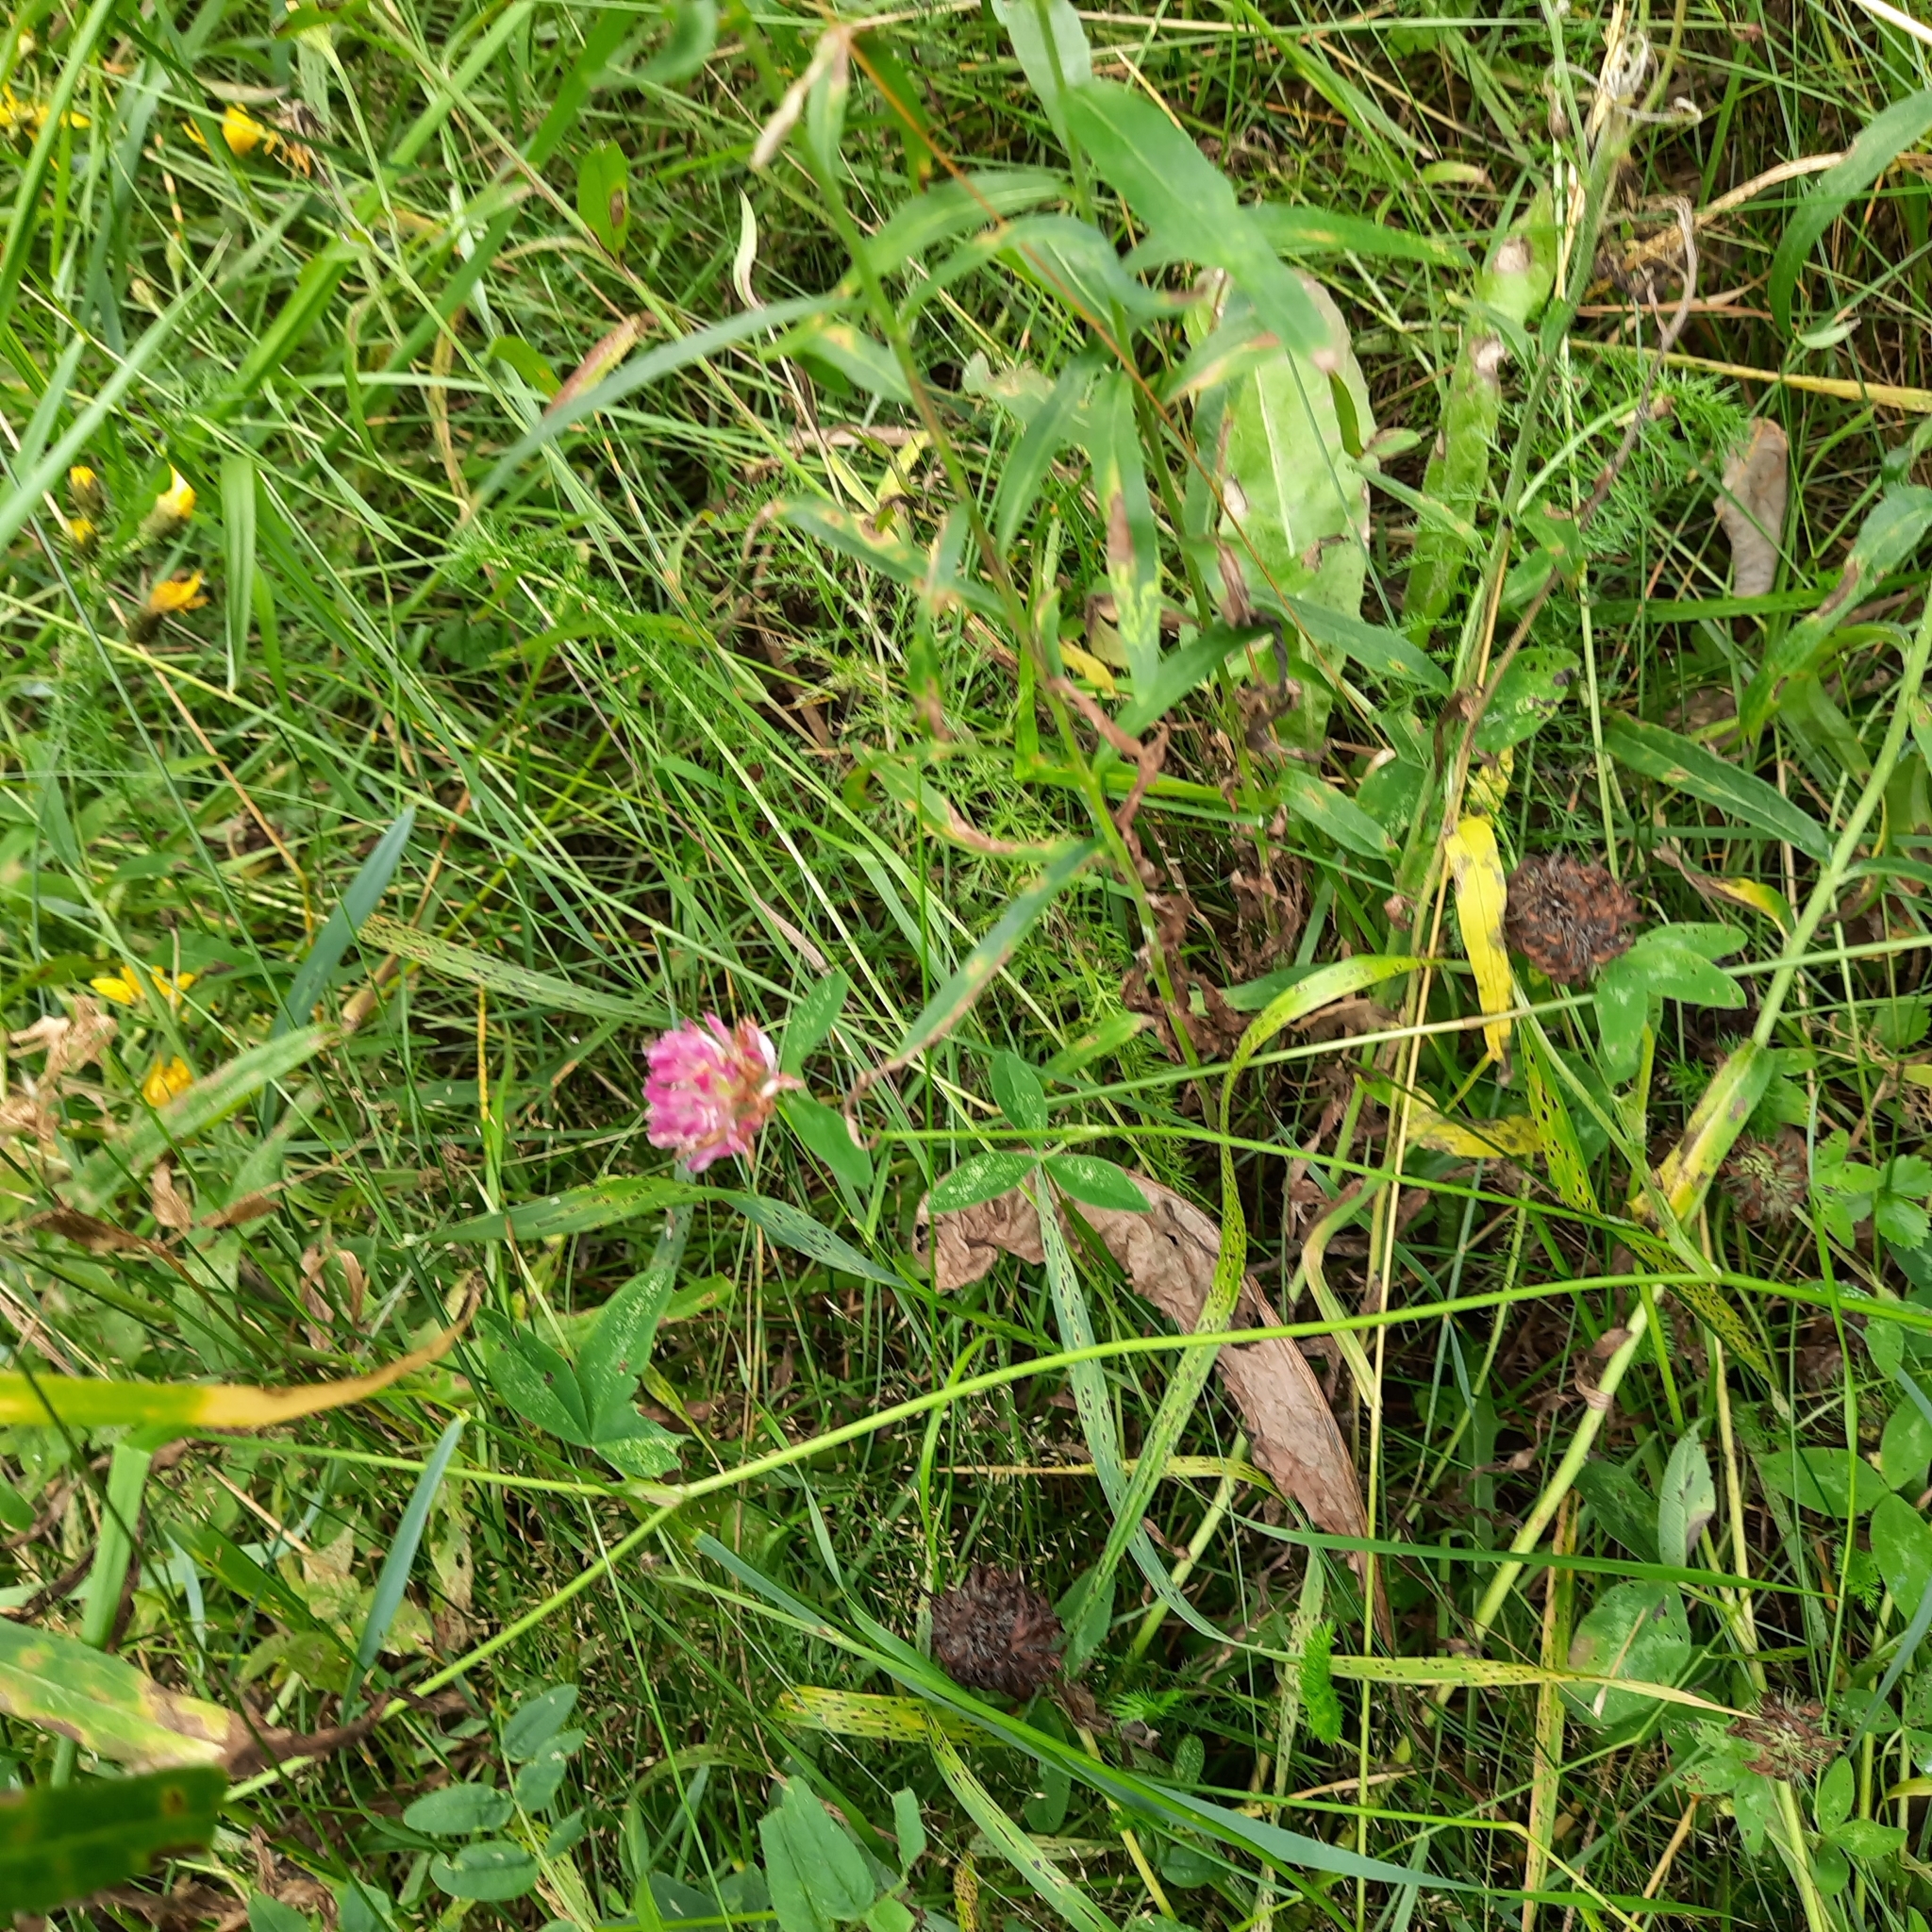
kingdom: Plantae
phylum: Tracheophyta
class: Magnoliopsida
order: Fabales
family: Fabaceae
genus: Trifolium
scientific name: Trifolium medium
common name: Zigzag clover
